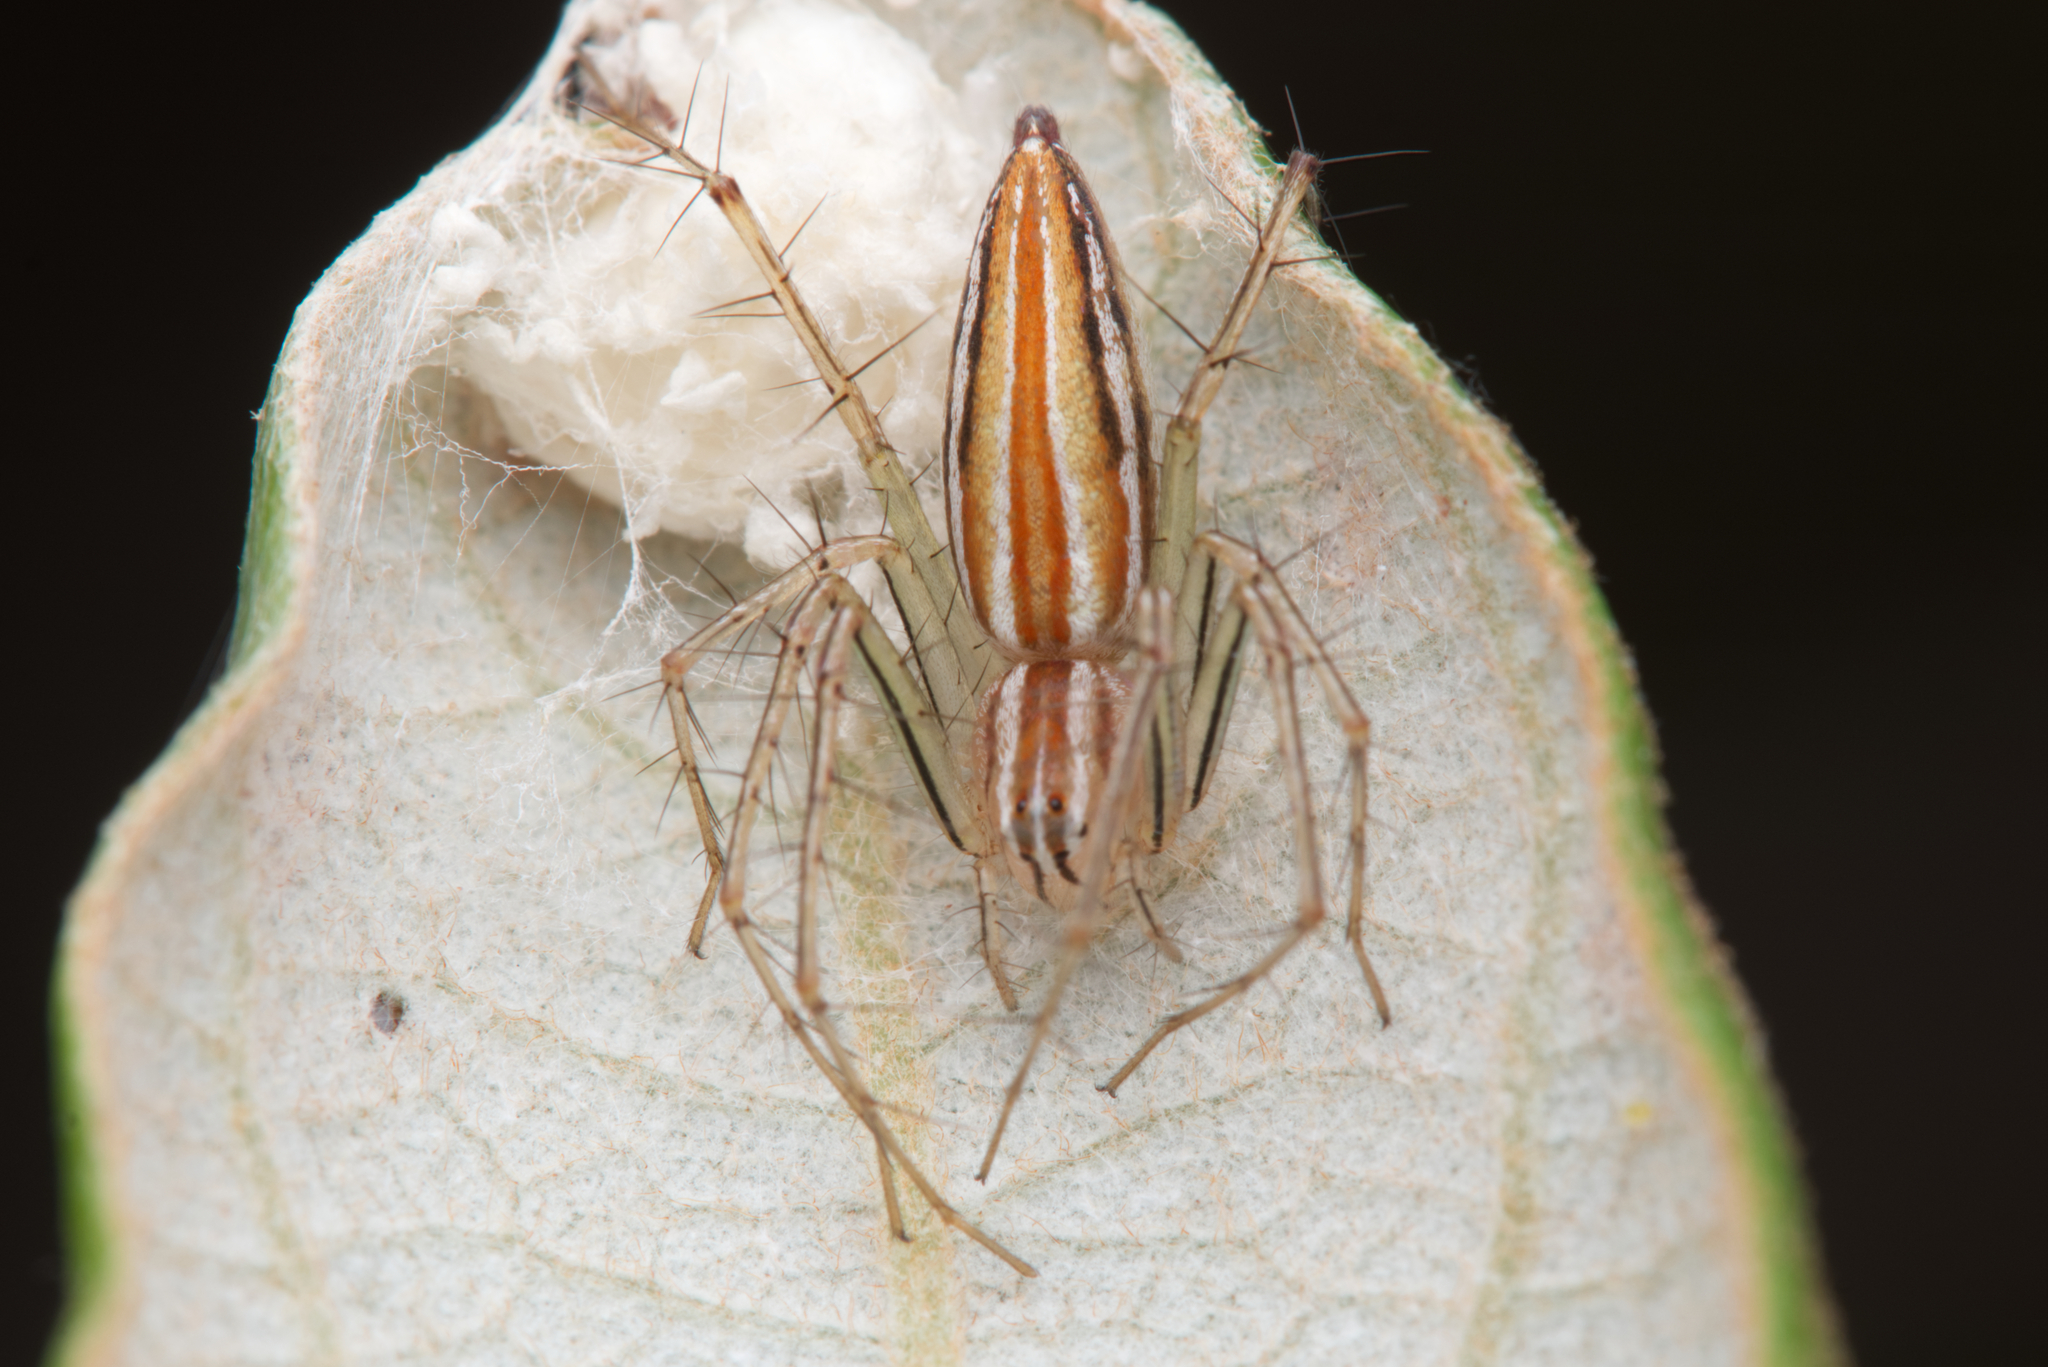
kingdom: Animalia
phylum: Arthropoda
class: Arachnida
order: Araneae
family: Oxyopidae
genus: Oxyopes
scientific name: Oxyopes macilentus
